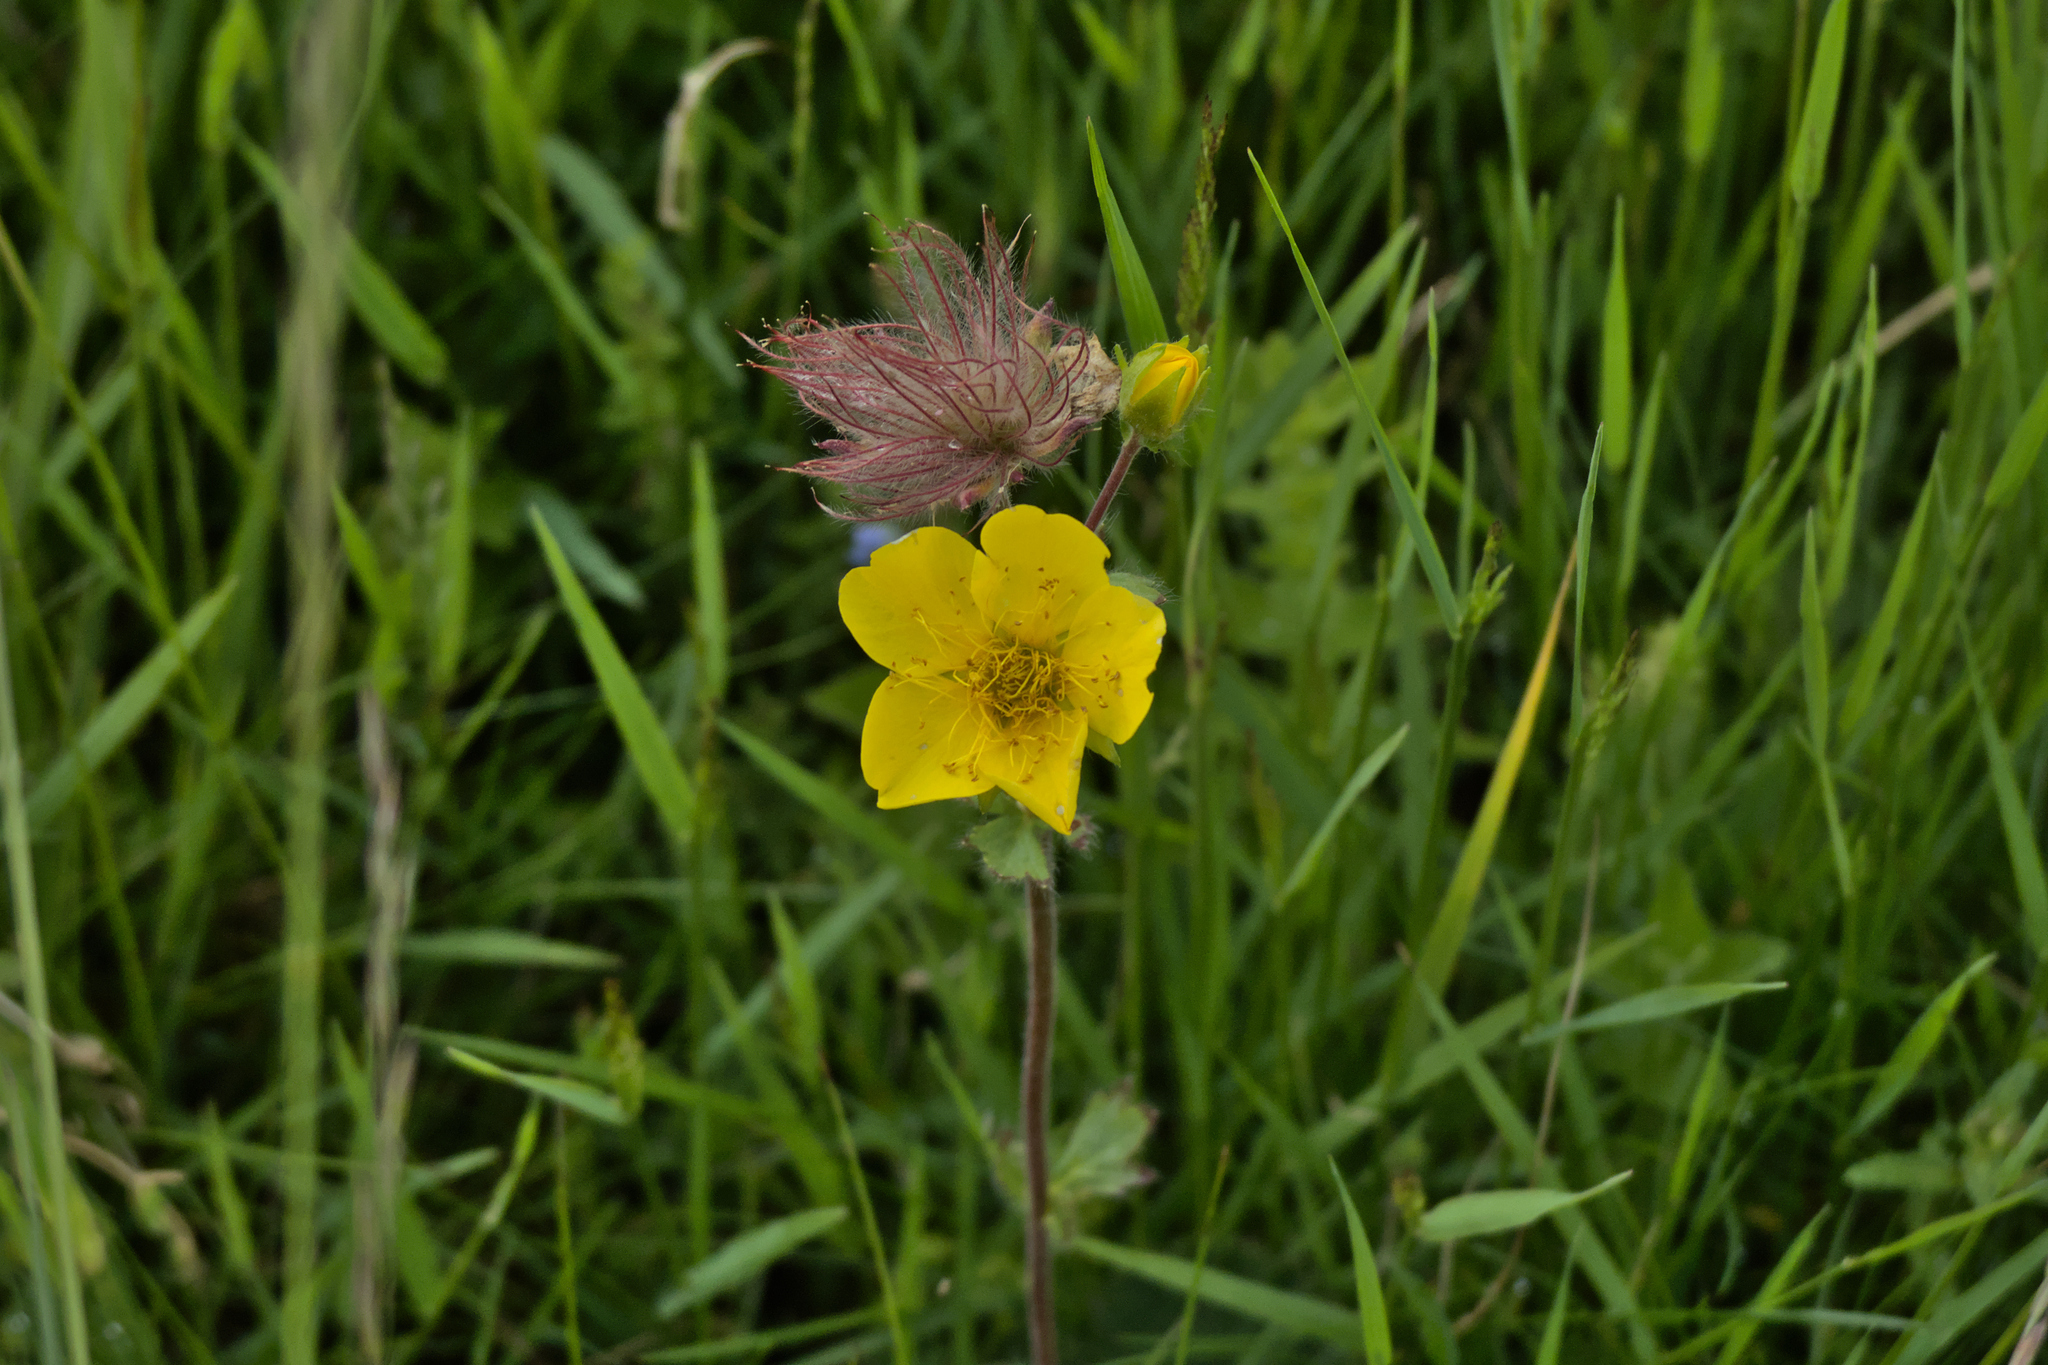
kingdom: Plantae
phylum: Tracheophyta
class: Magnoliopsida
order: Rosales
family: Rosaceae
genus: Geum
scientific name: Geum montanum
